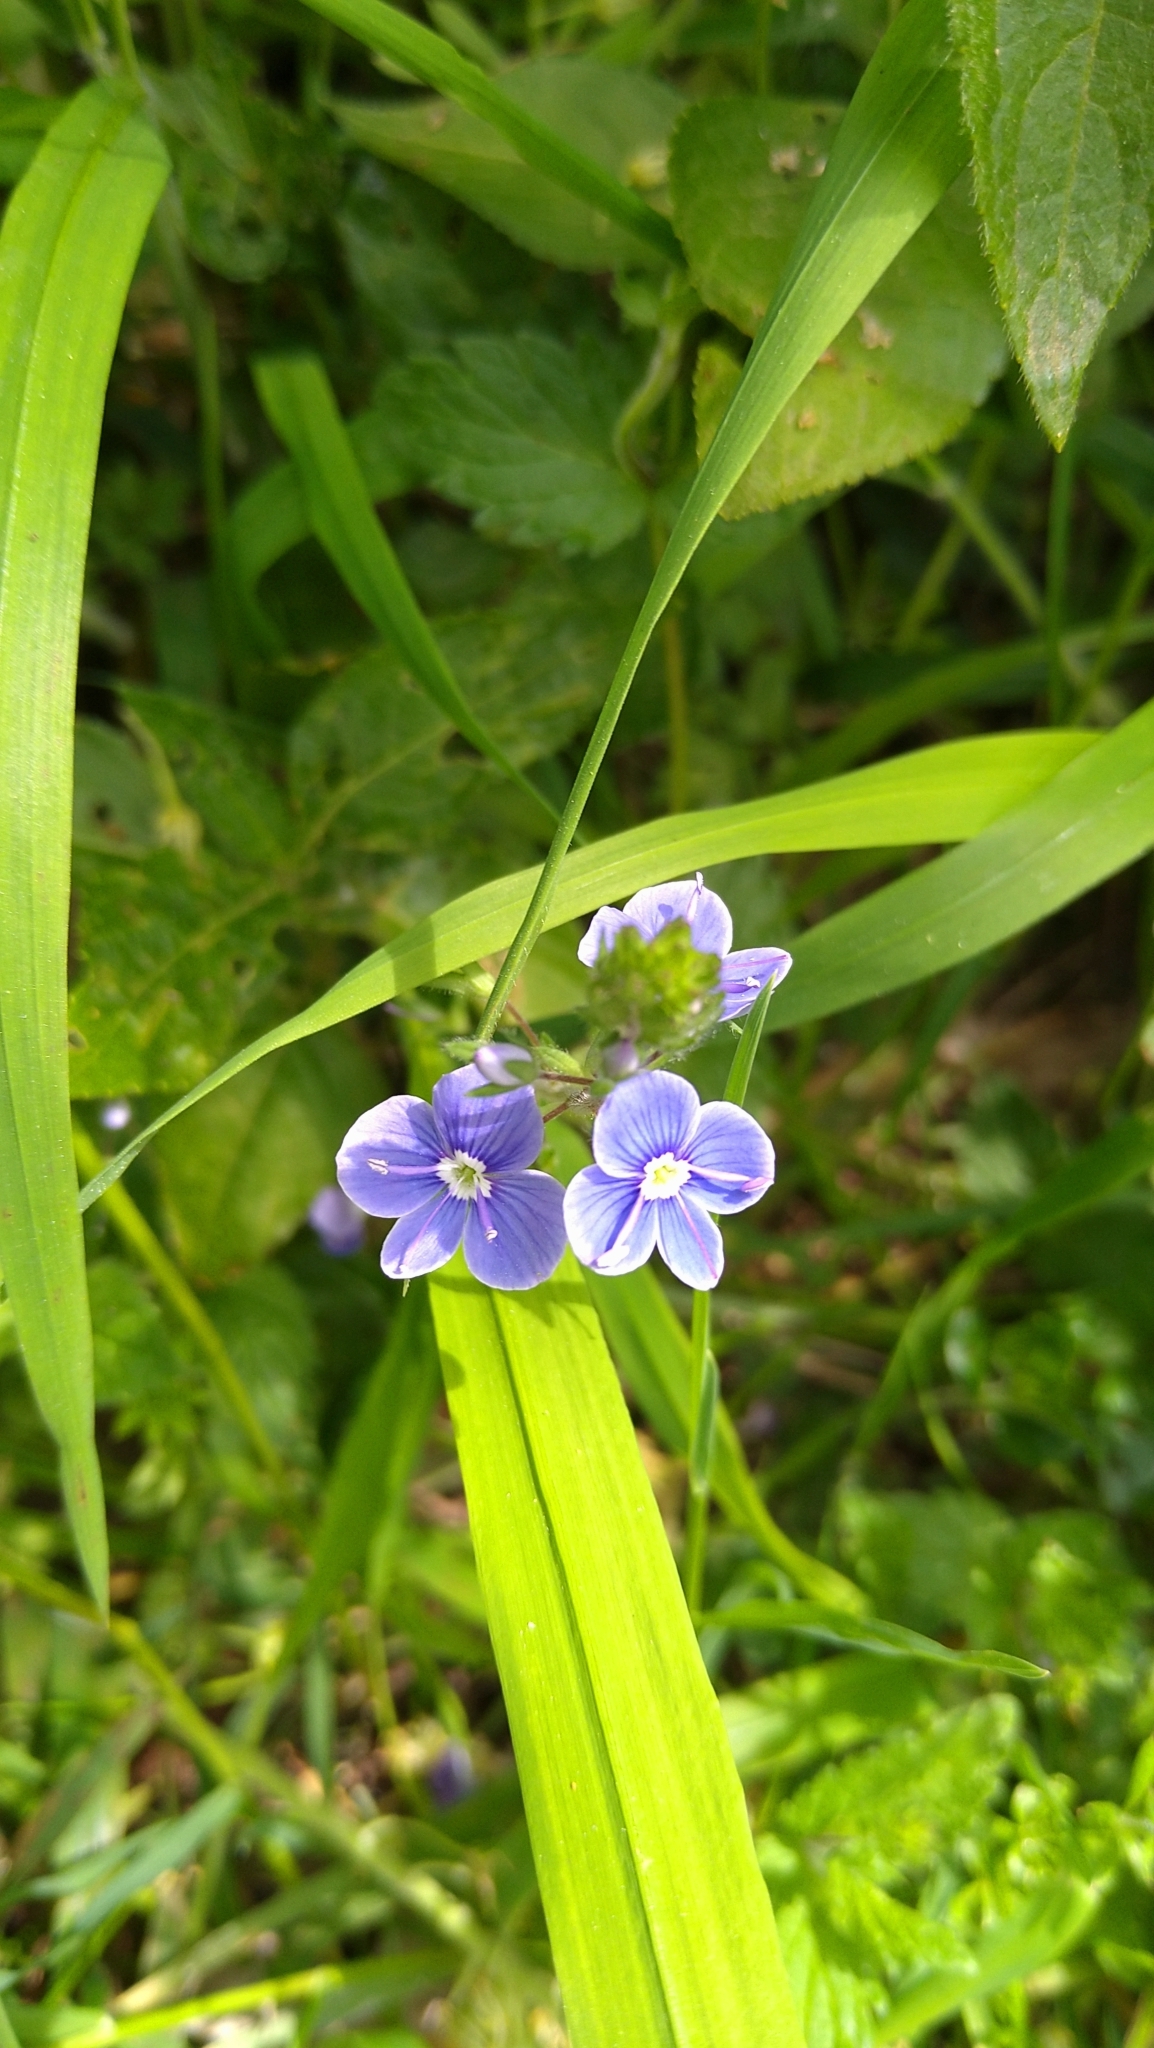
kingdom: Plantae
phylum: Tracheophyta
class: Magnoliopsida
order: Lamiales
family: Plantaginaceae
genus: Veronica
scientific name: Veronica chamaedrys
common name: Germander speedwell
